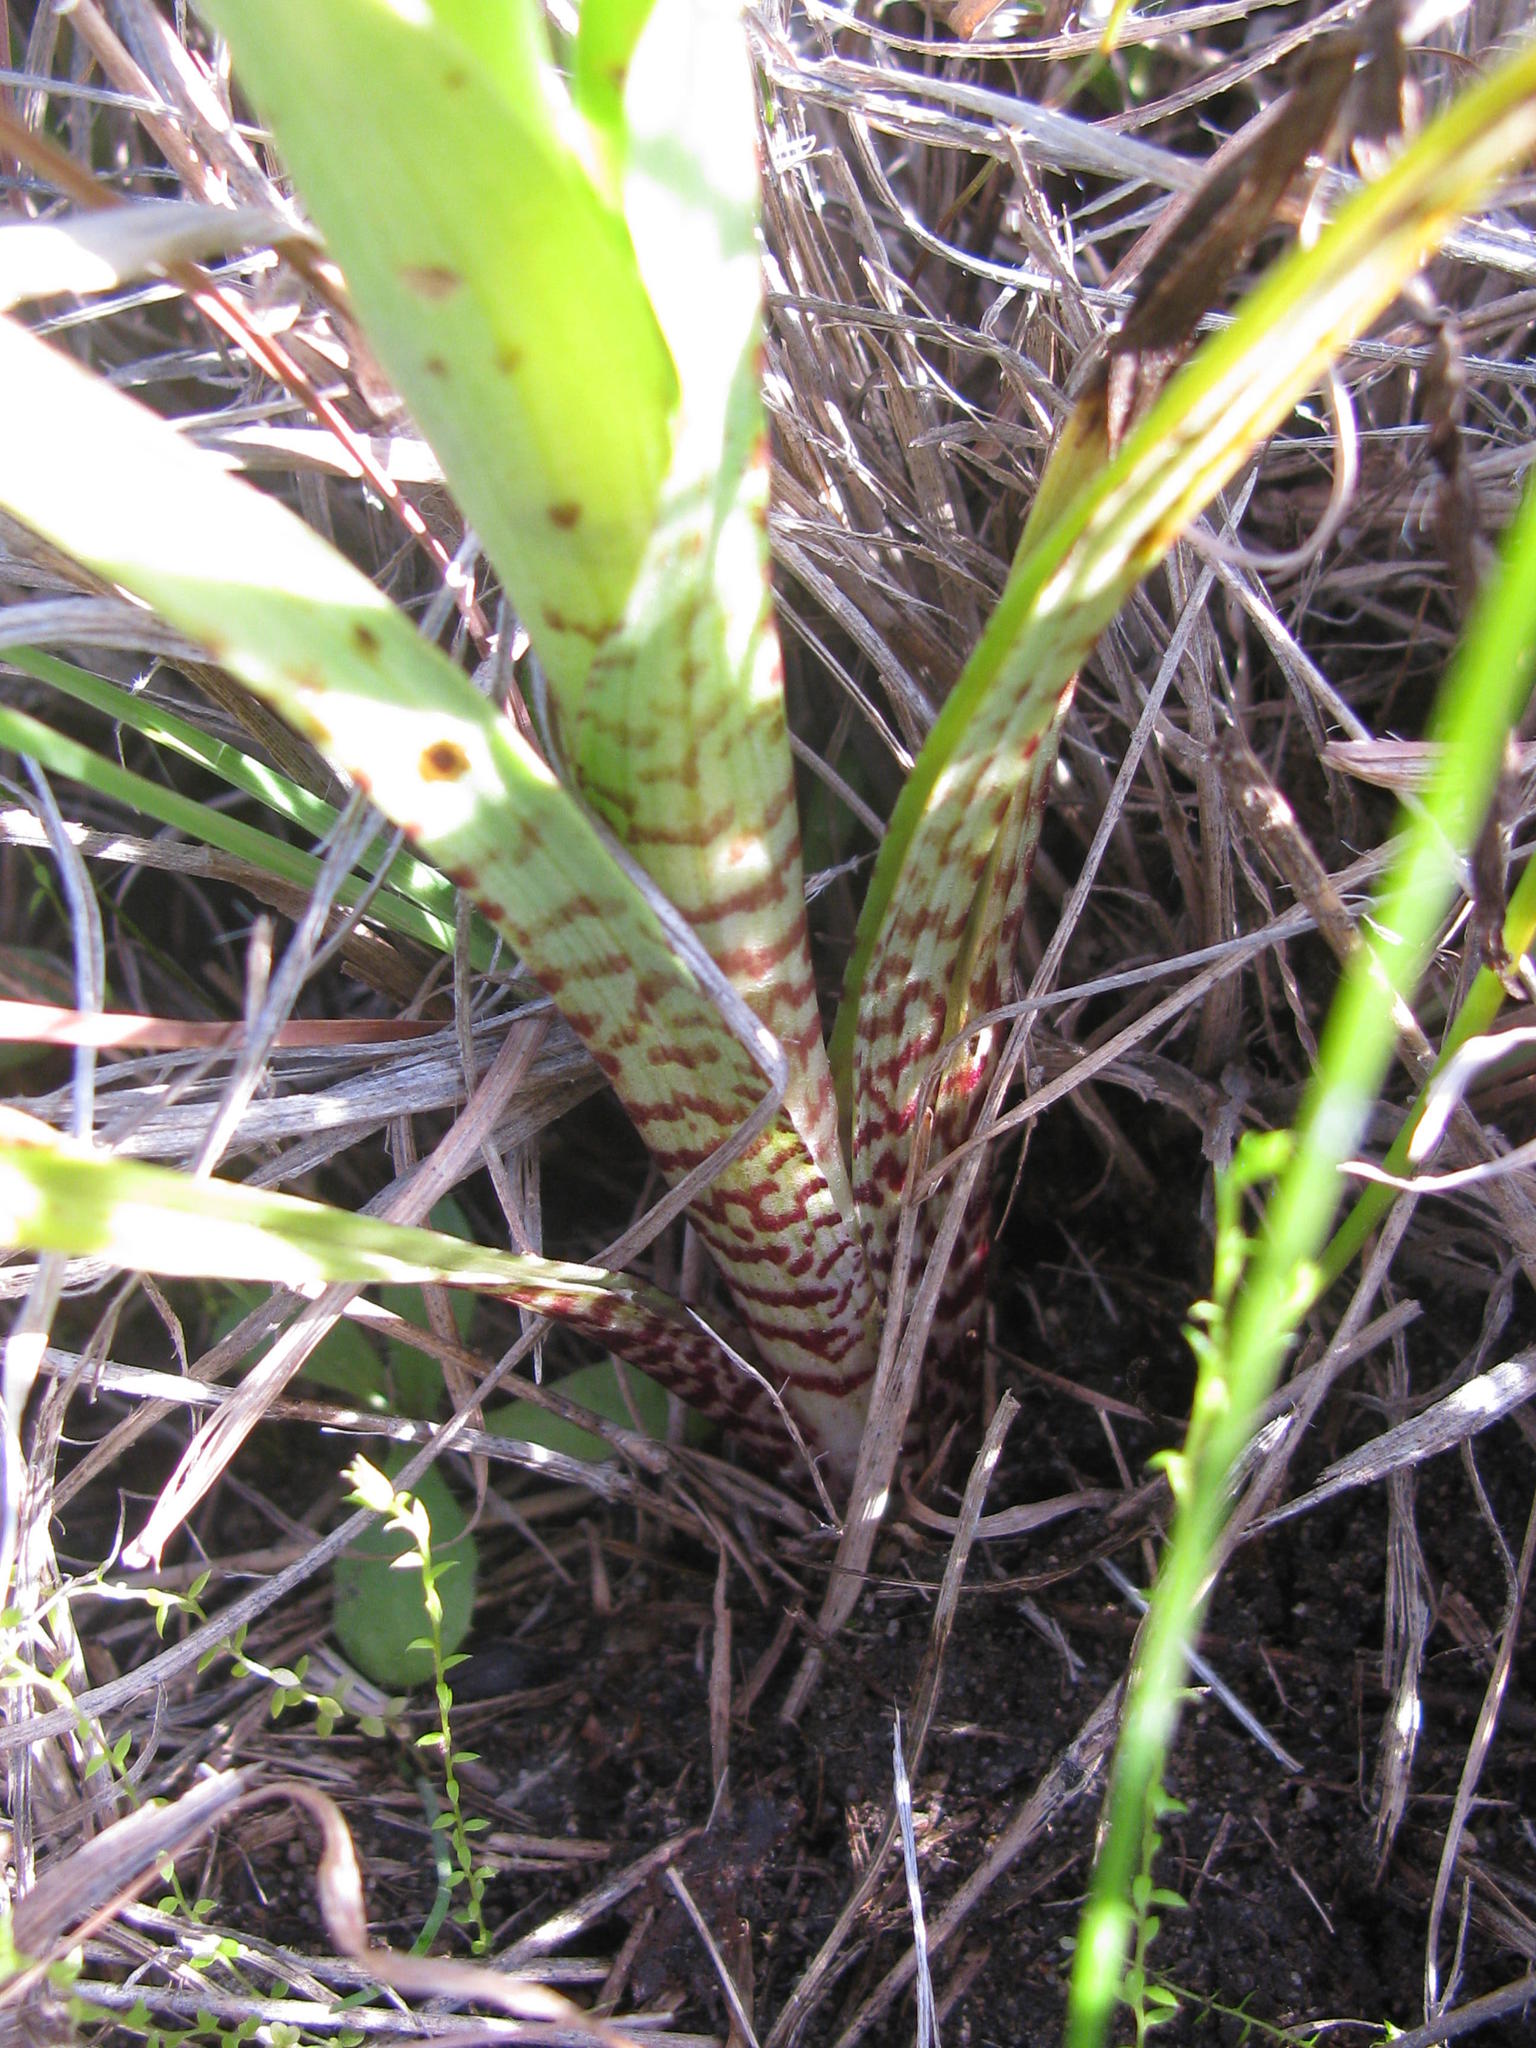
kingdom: Plantae
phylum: Tracheophyta
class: Liliopsida
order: Asparagales
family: Orchidaceae
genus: Corycium
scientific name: Corycium bicolorum
